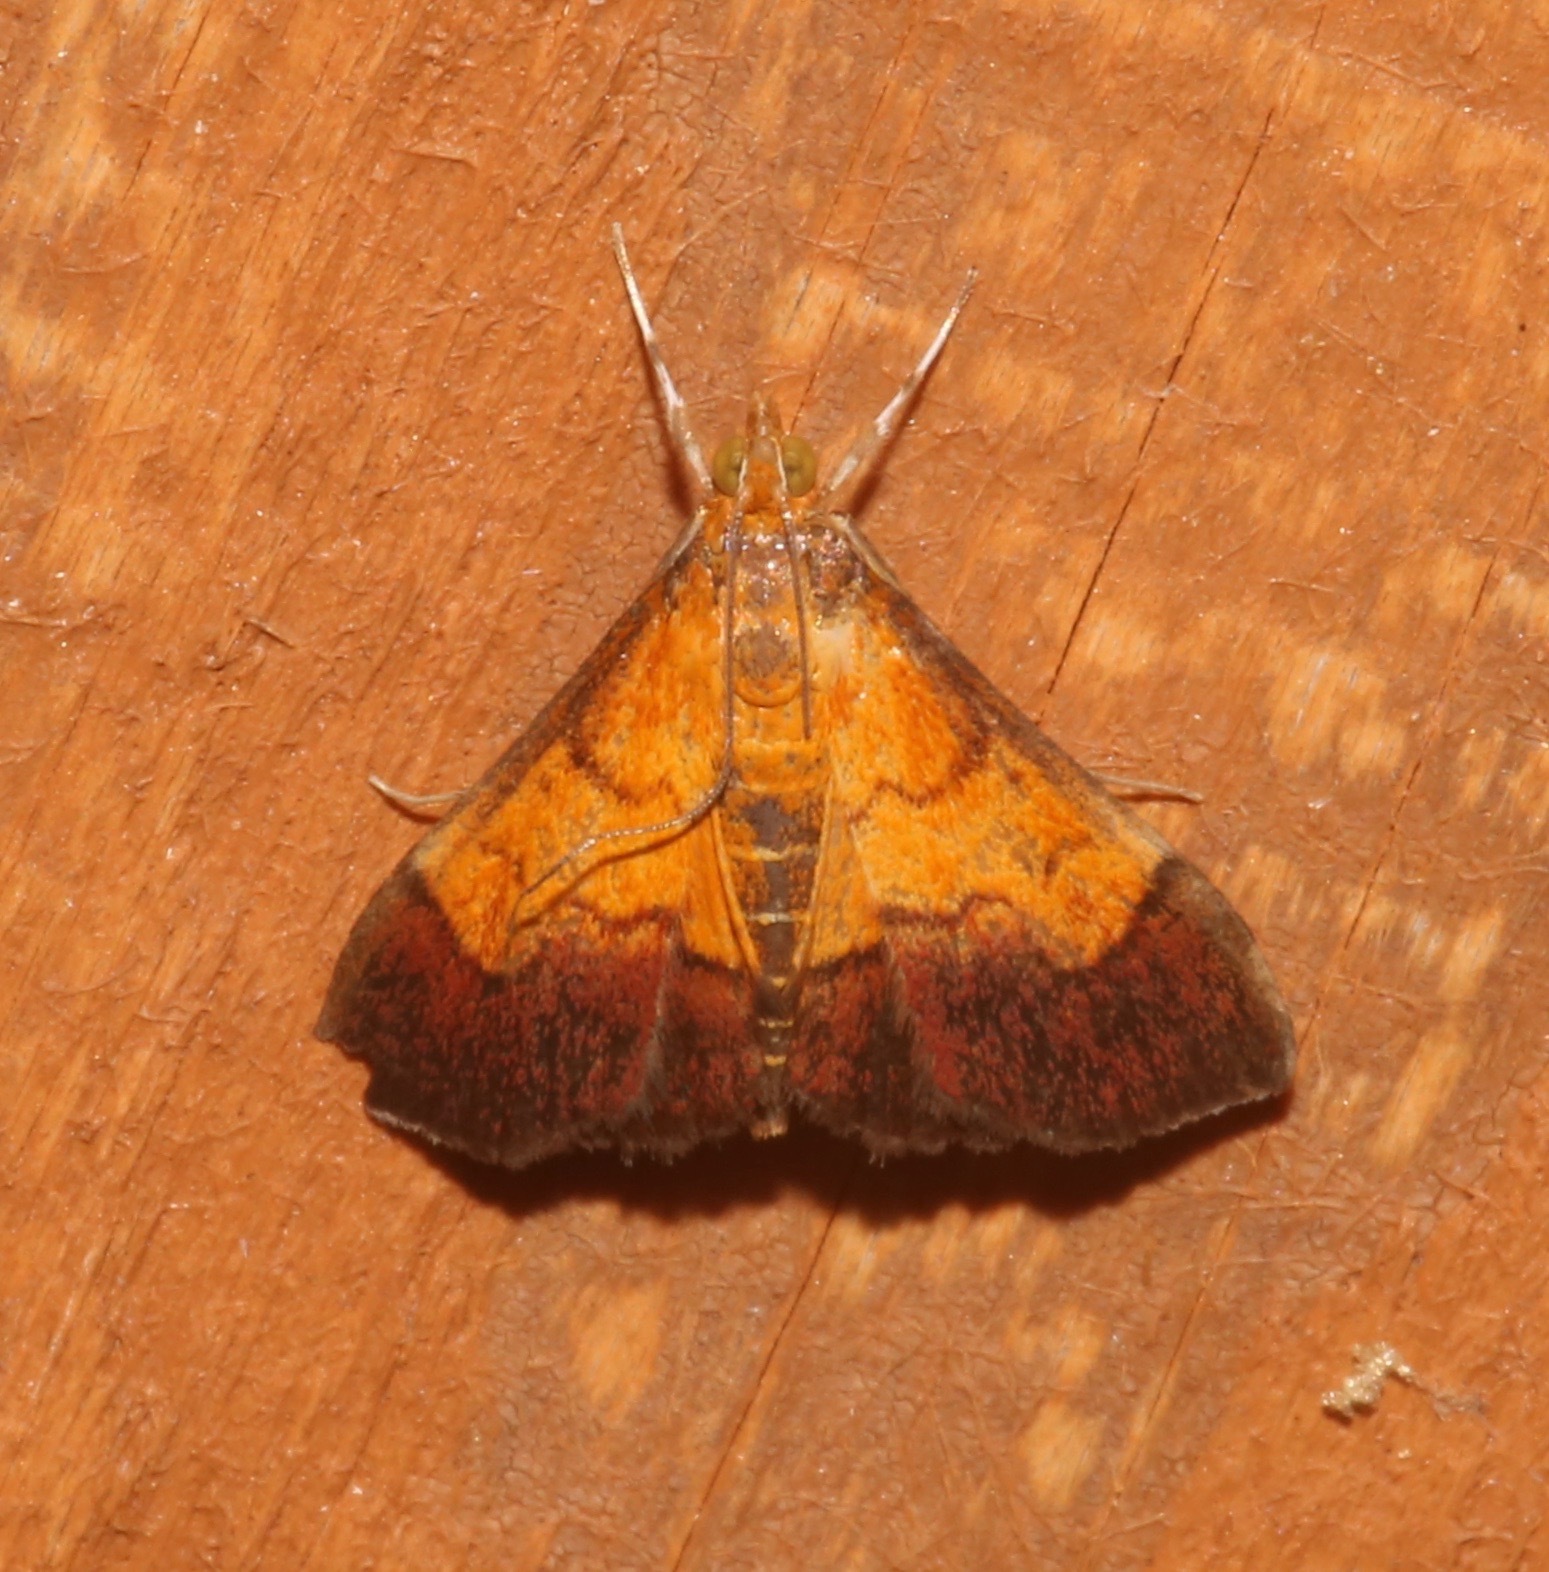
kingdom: Animalia
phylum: Arthropoda
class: Insecta
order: Lepidoptera
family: Crambidae
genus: Pyrausta
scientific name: Pyrausta bicoloralis
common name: Bicolored pyrausta moth
